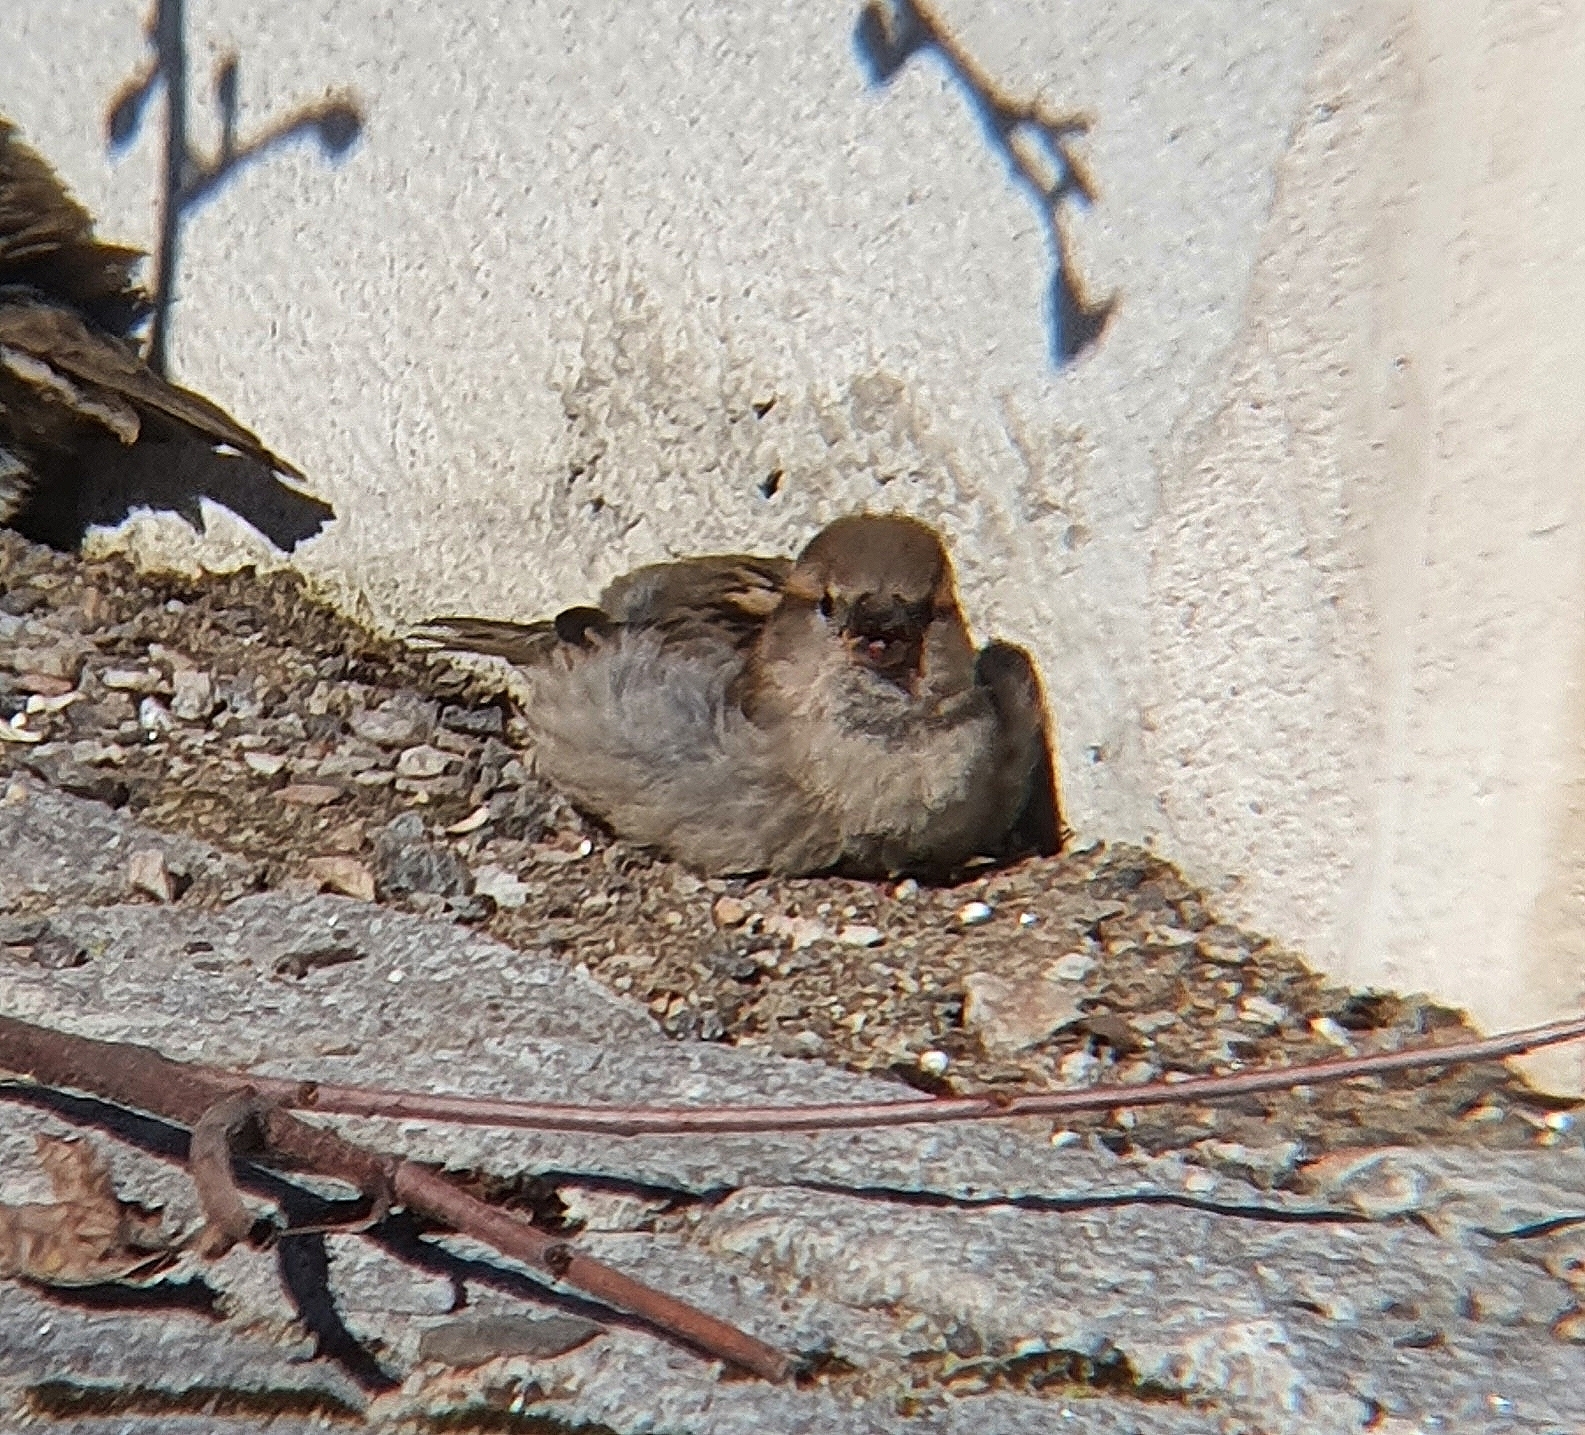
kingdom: Animalia
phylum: Chordata
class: Aves
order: Passeriformes
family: Passeridae
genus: Passer
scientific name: Passer domesticus
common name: House sparrow
